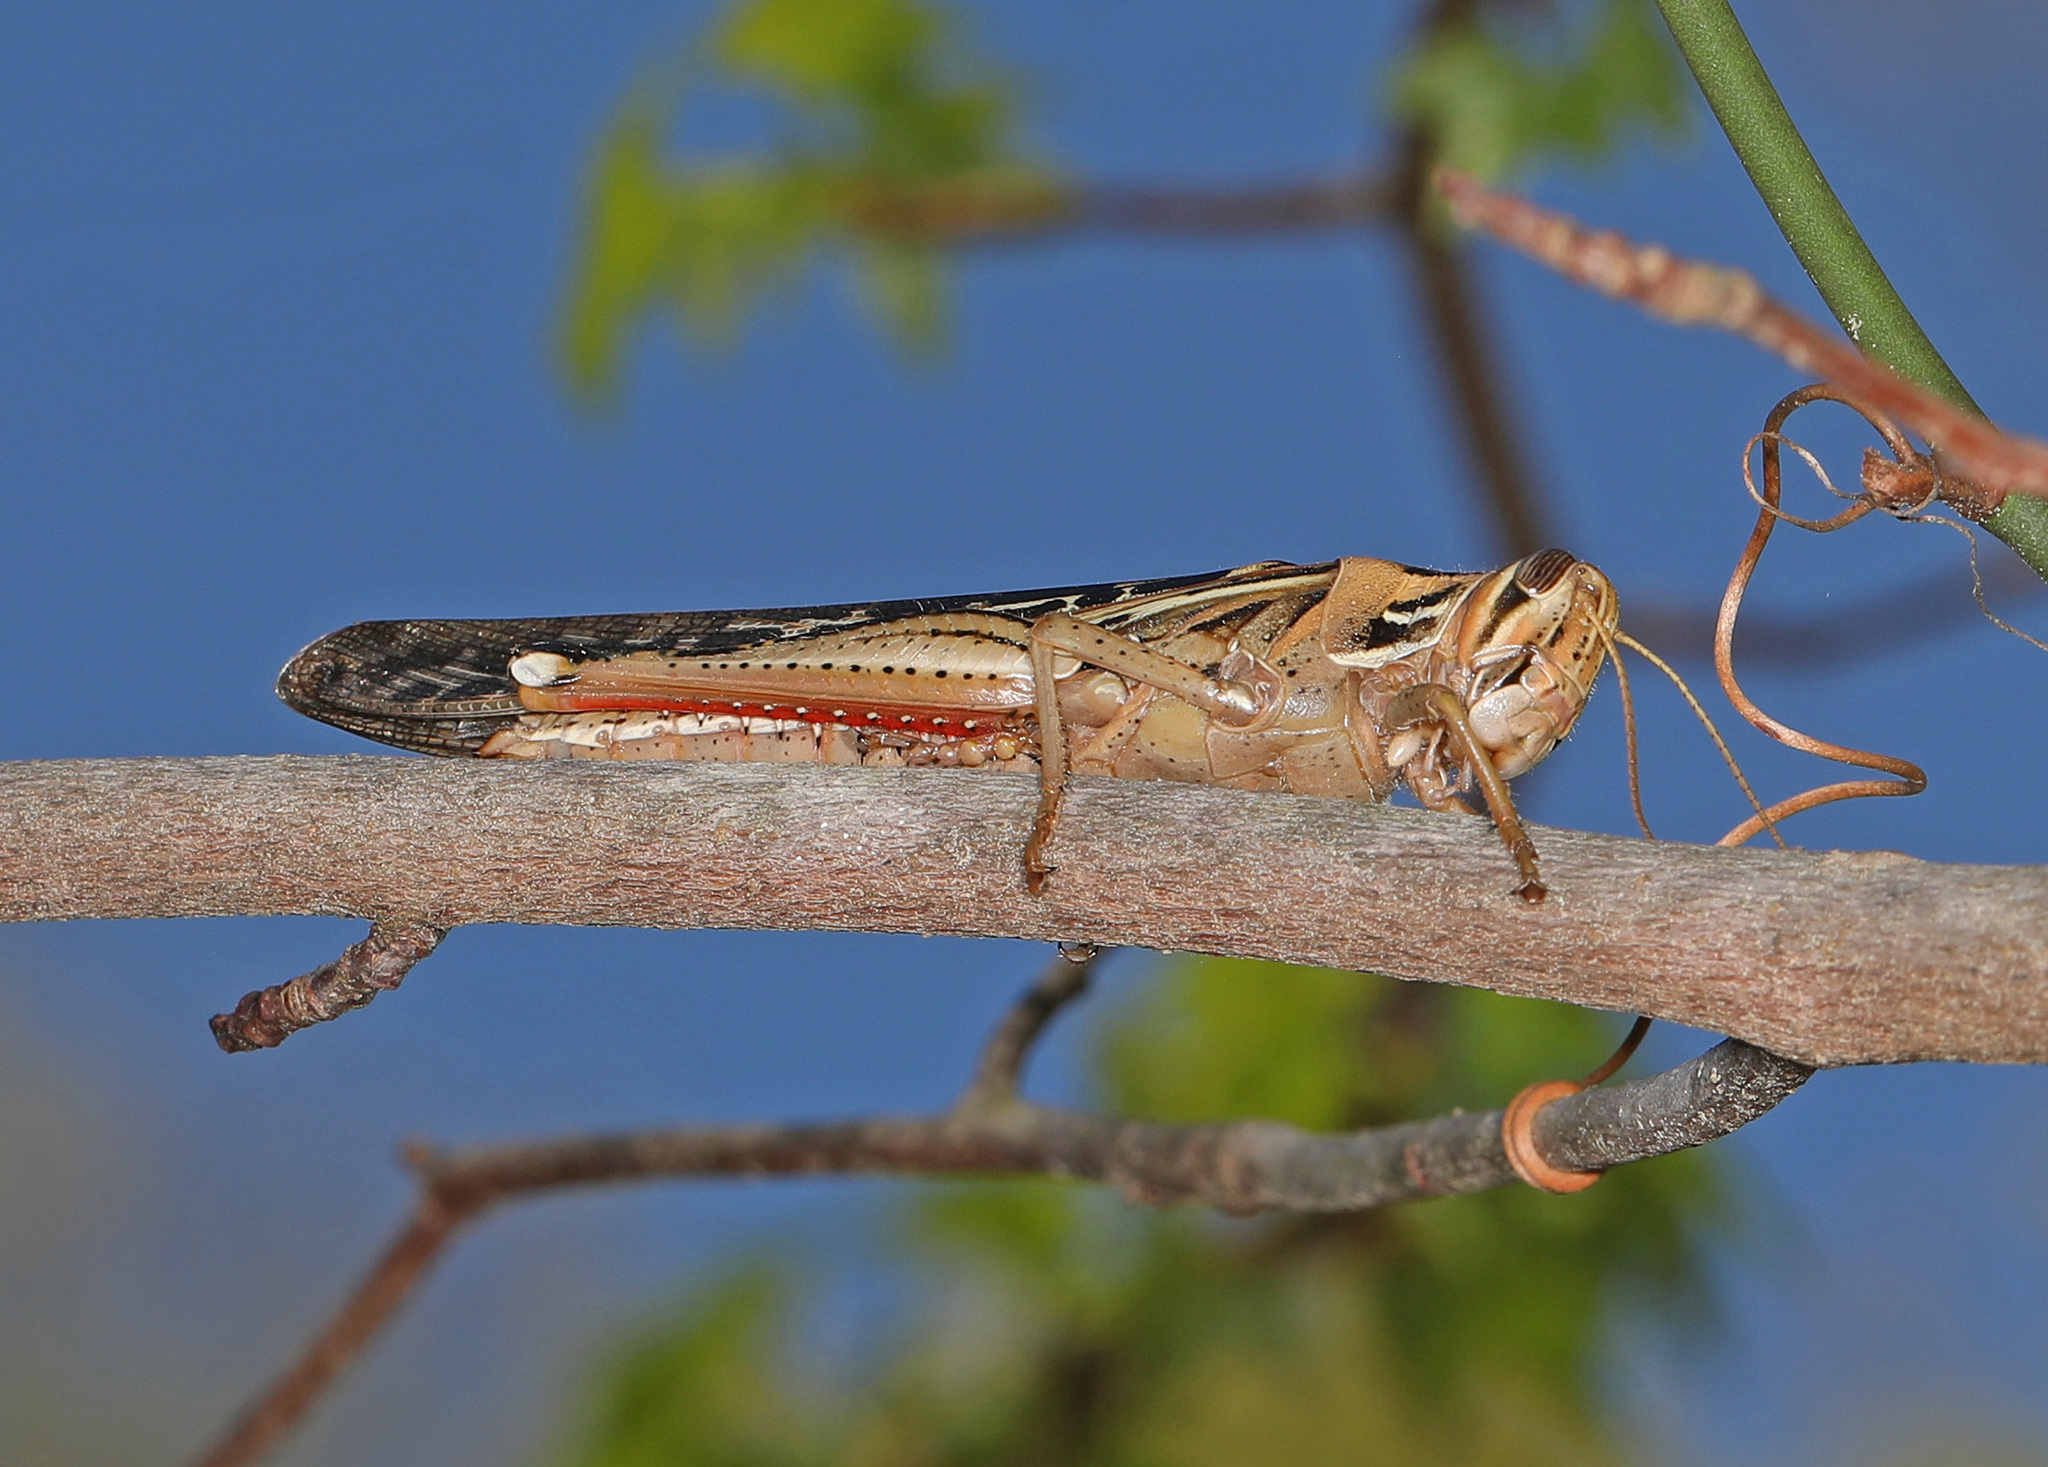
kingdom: Animalia
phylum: Arthropoda
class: Insecta
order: Orthoptera
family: Acrididae
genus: Schistocerca
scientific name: Schistocerca americana
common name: American bird locust
